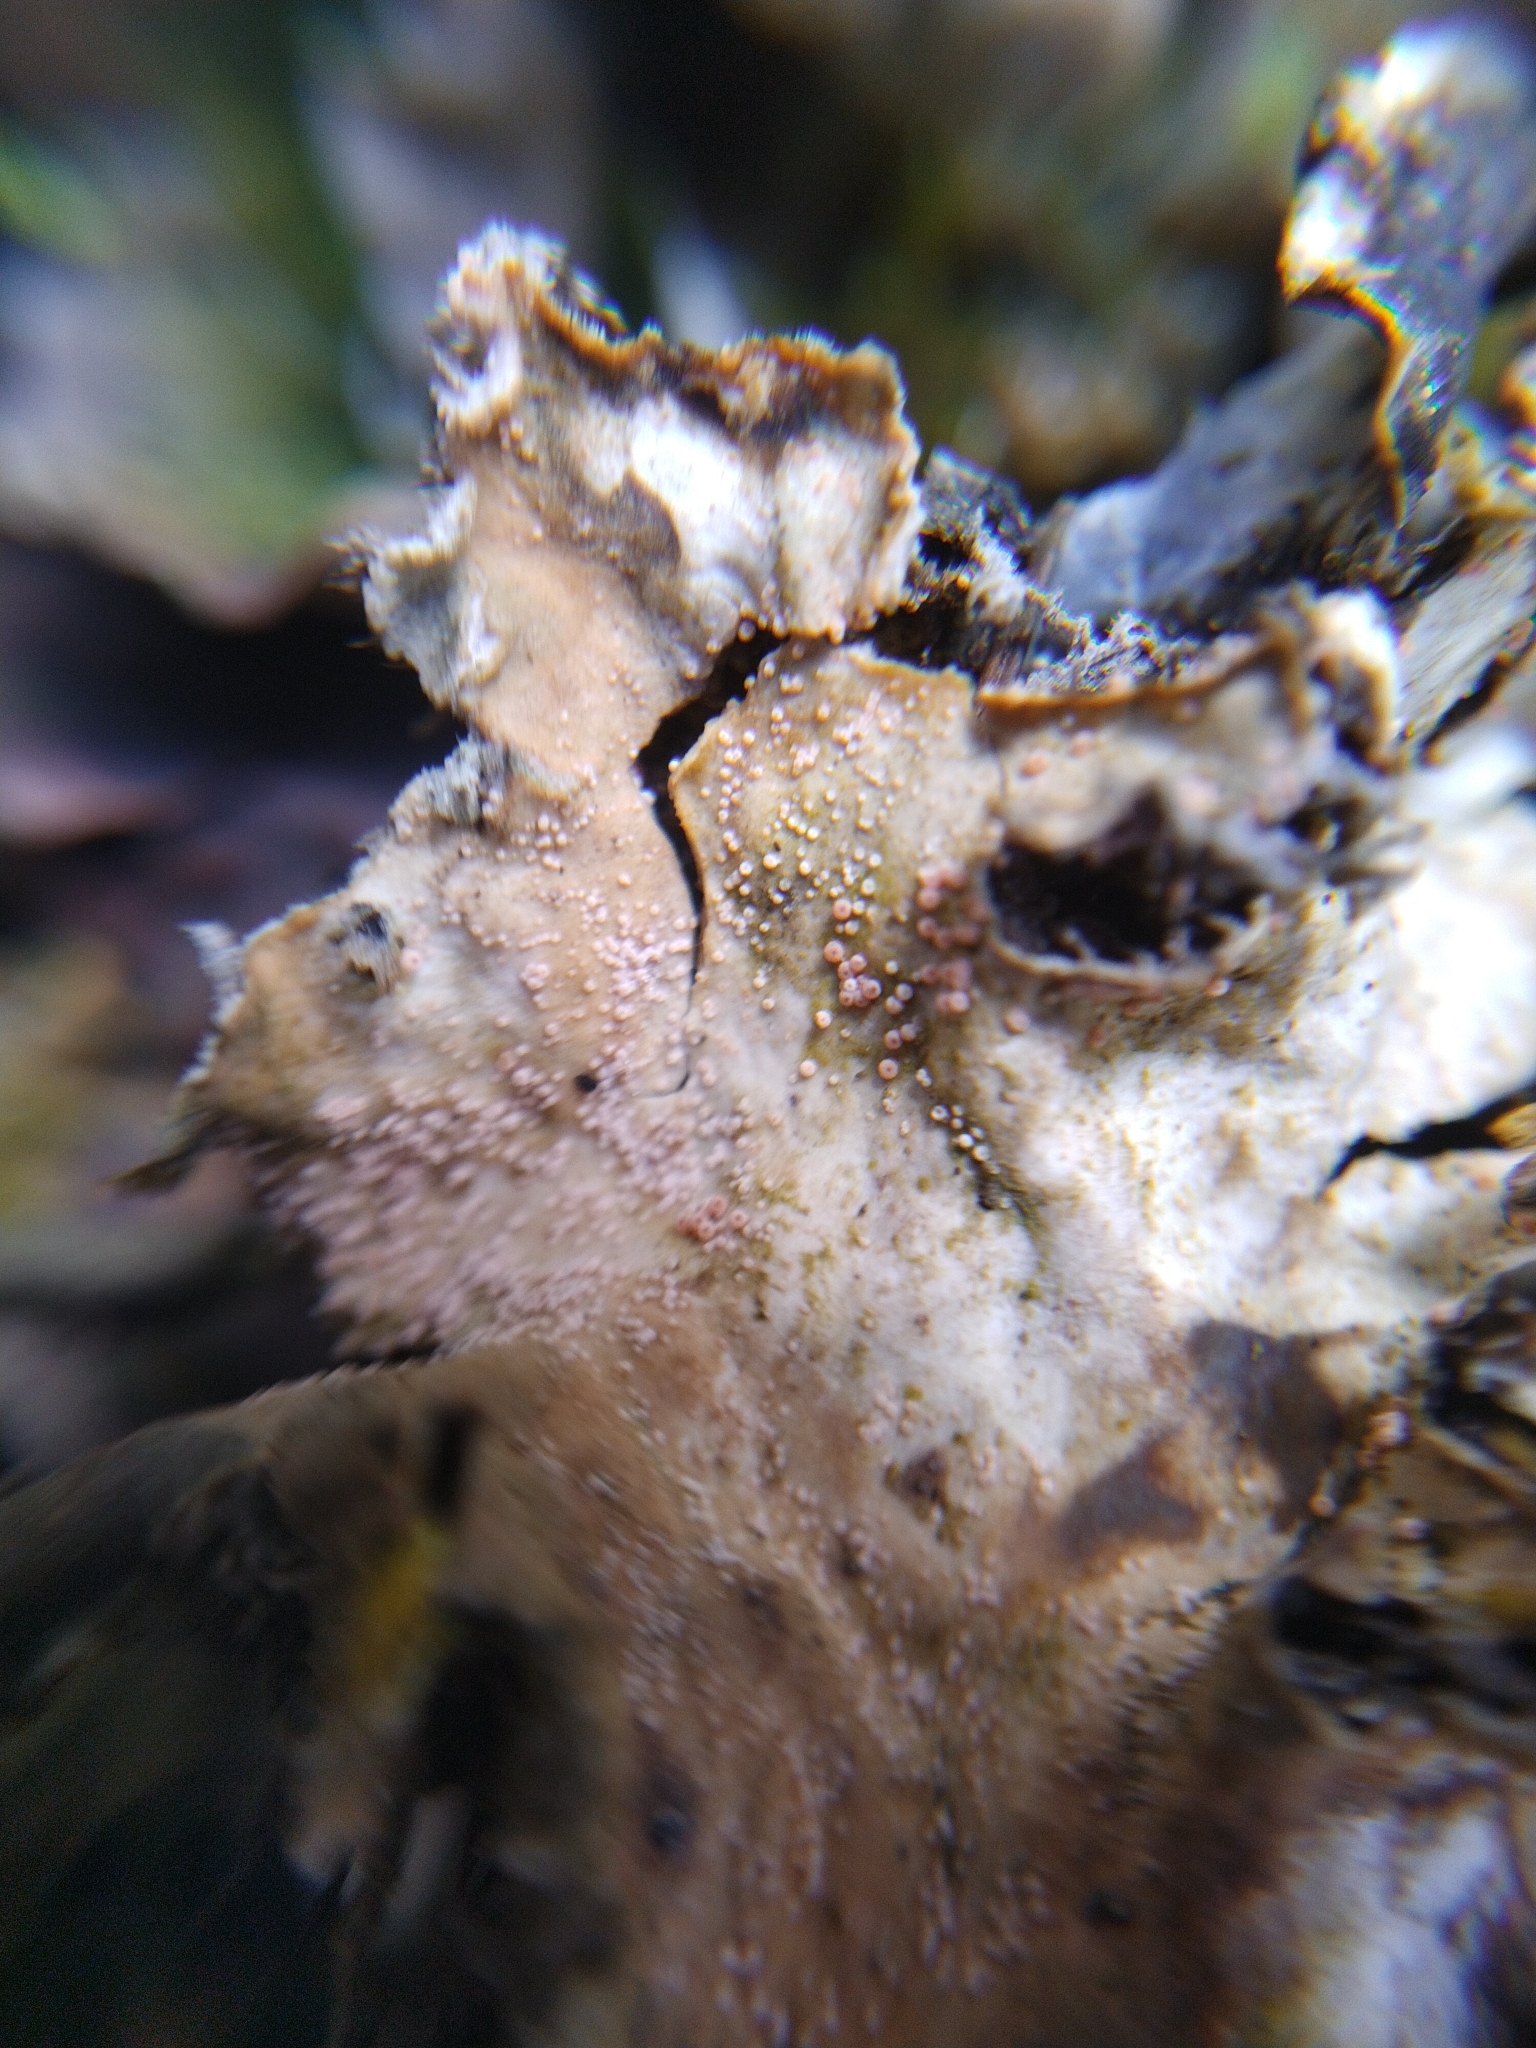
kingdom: Fungi
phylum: Ascomycota
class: Sordariomycetes
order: Hypocreales
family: Bionectriaceae
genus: Nectriopsis
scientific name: Nectriopsis lecanodes
